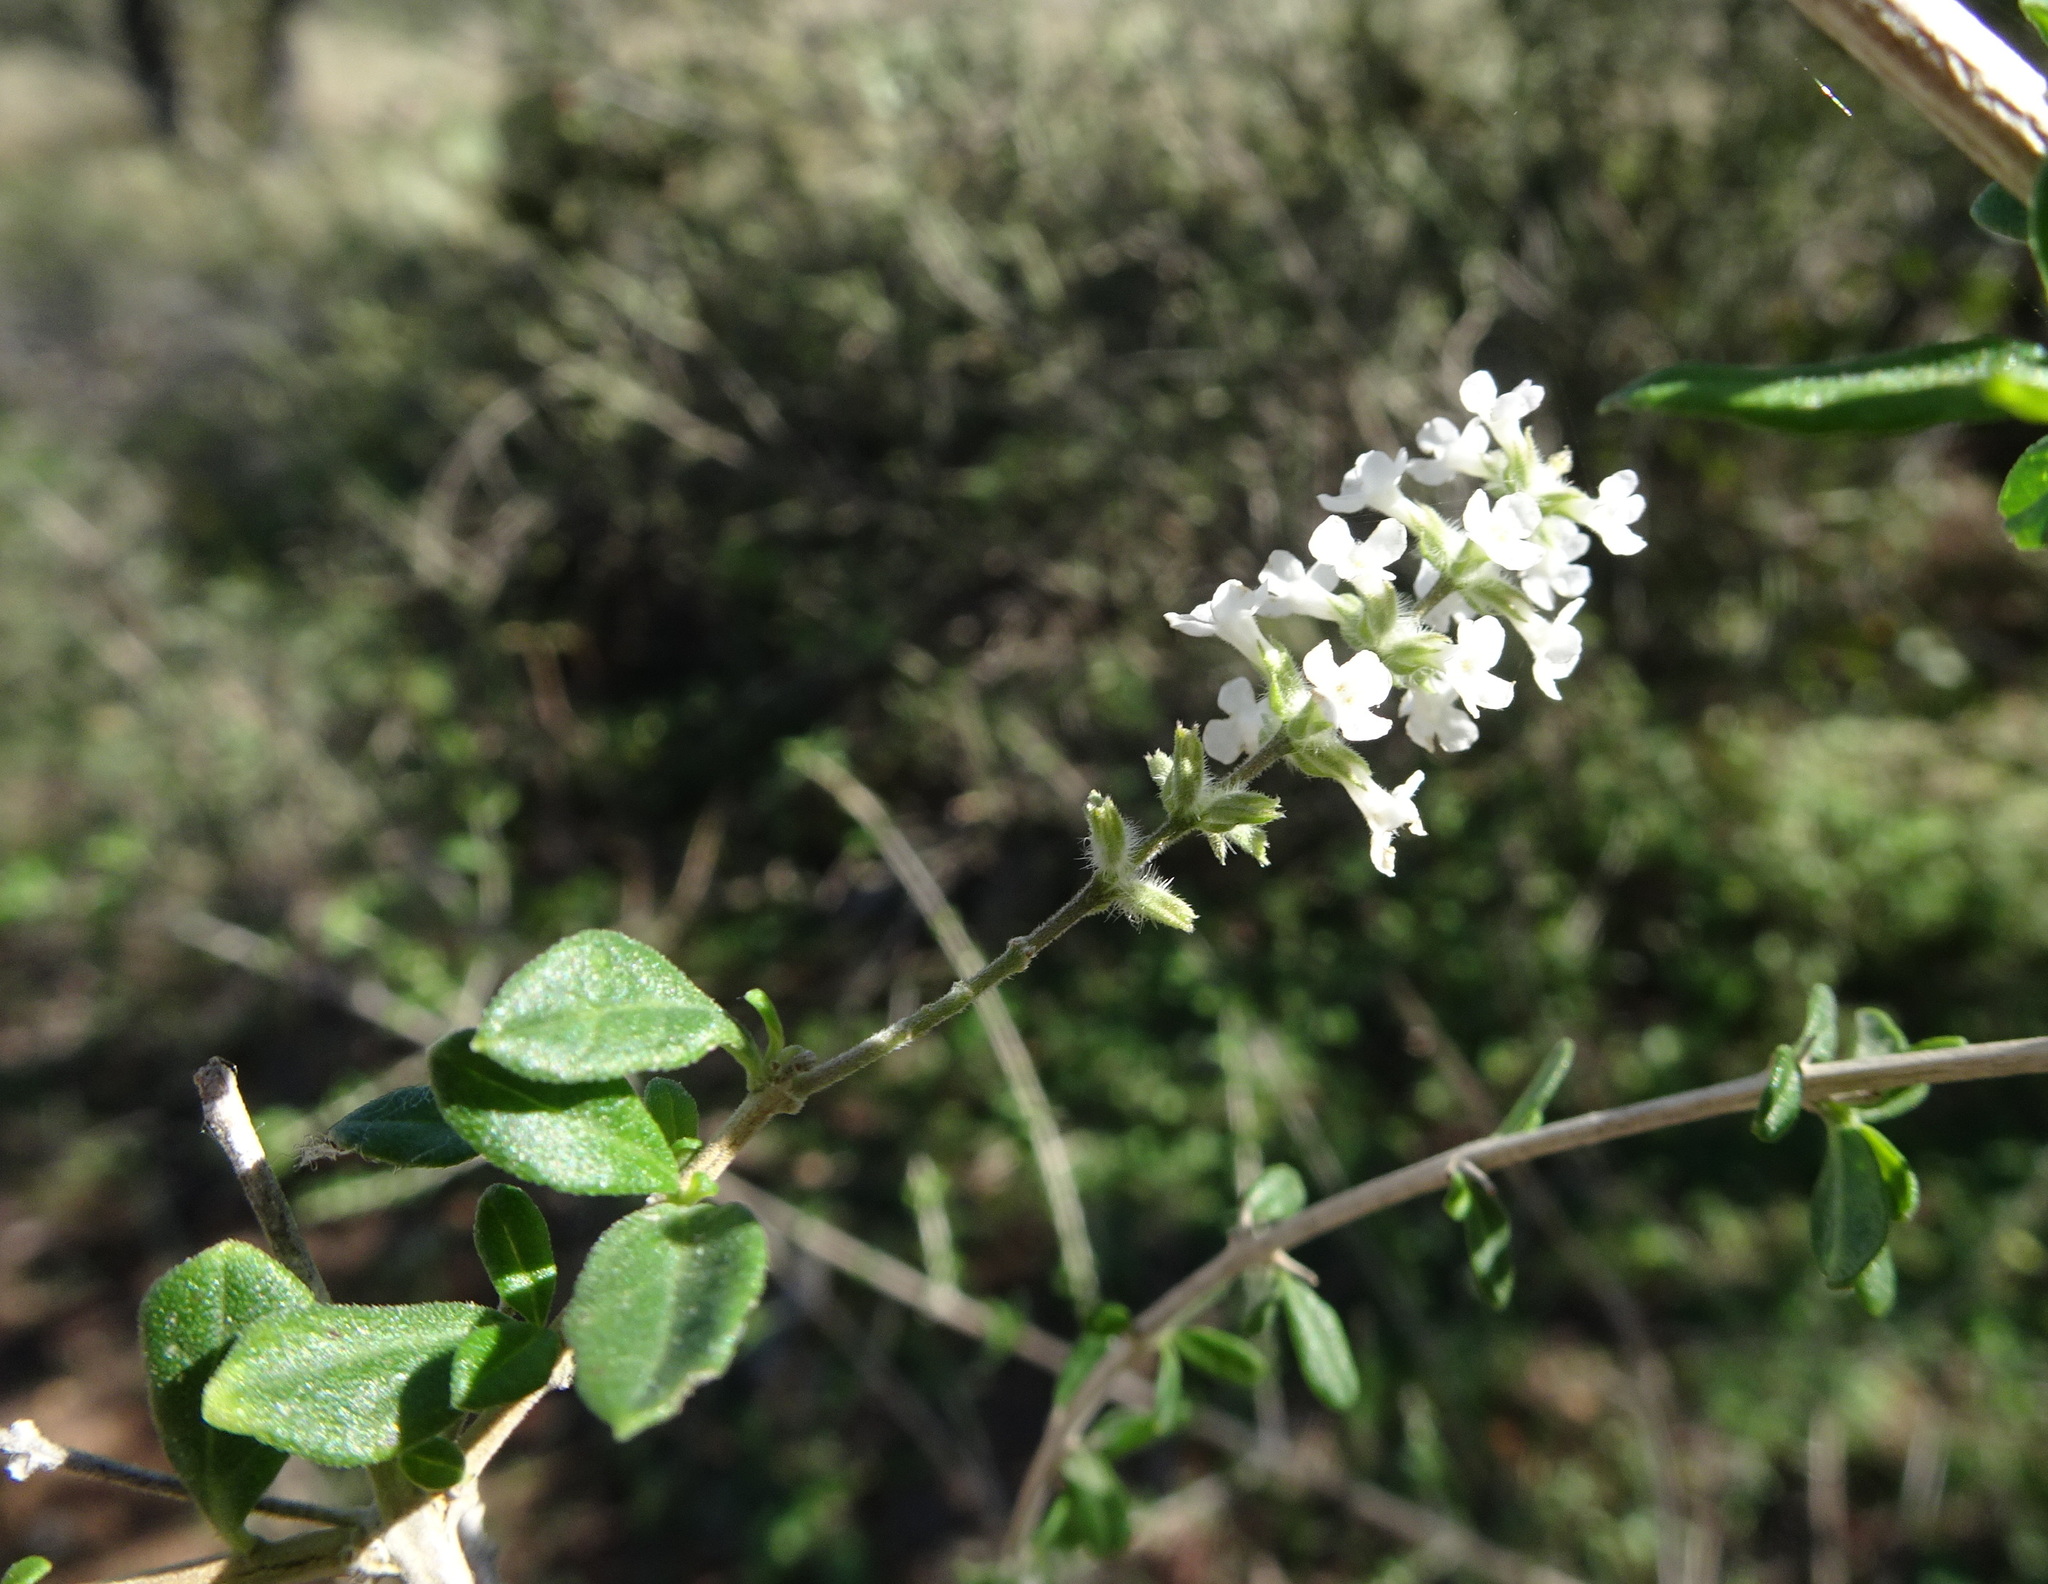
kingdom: Plantae
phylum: Tracheophyta
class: Magnoliopsida
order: Lamiales
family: Verbenaceae
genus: Aloysia
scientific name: Aloysia gratissima
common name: Common bee-brush
